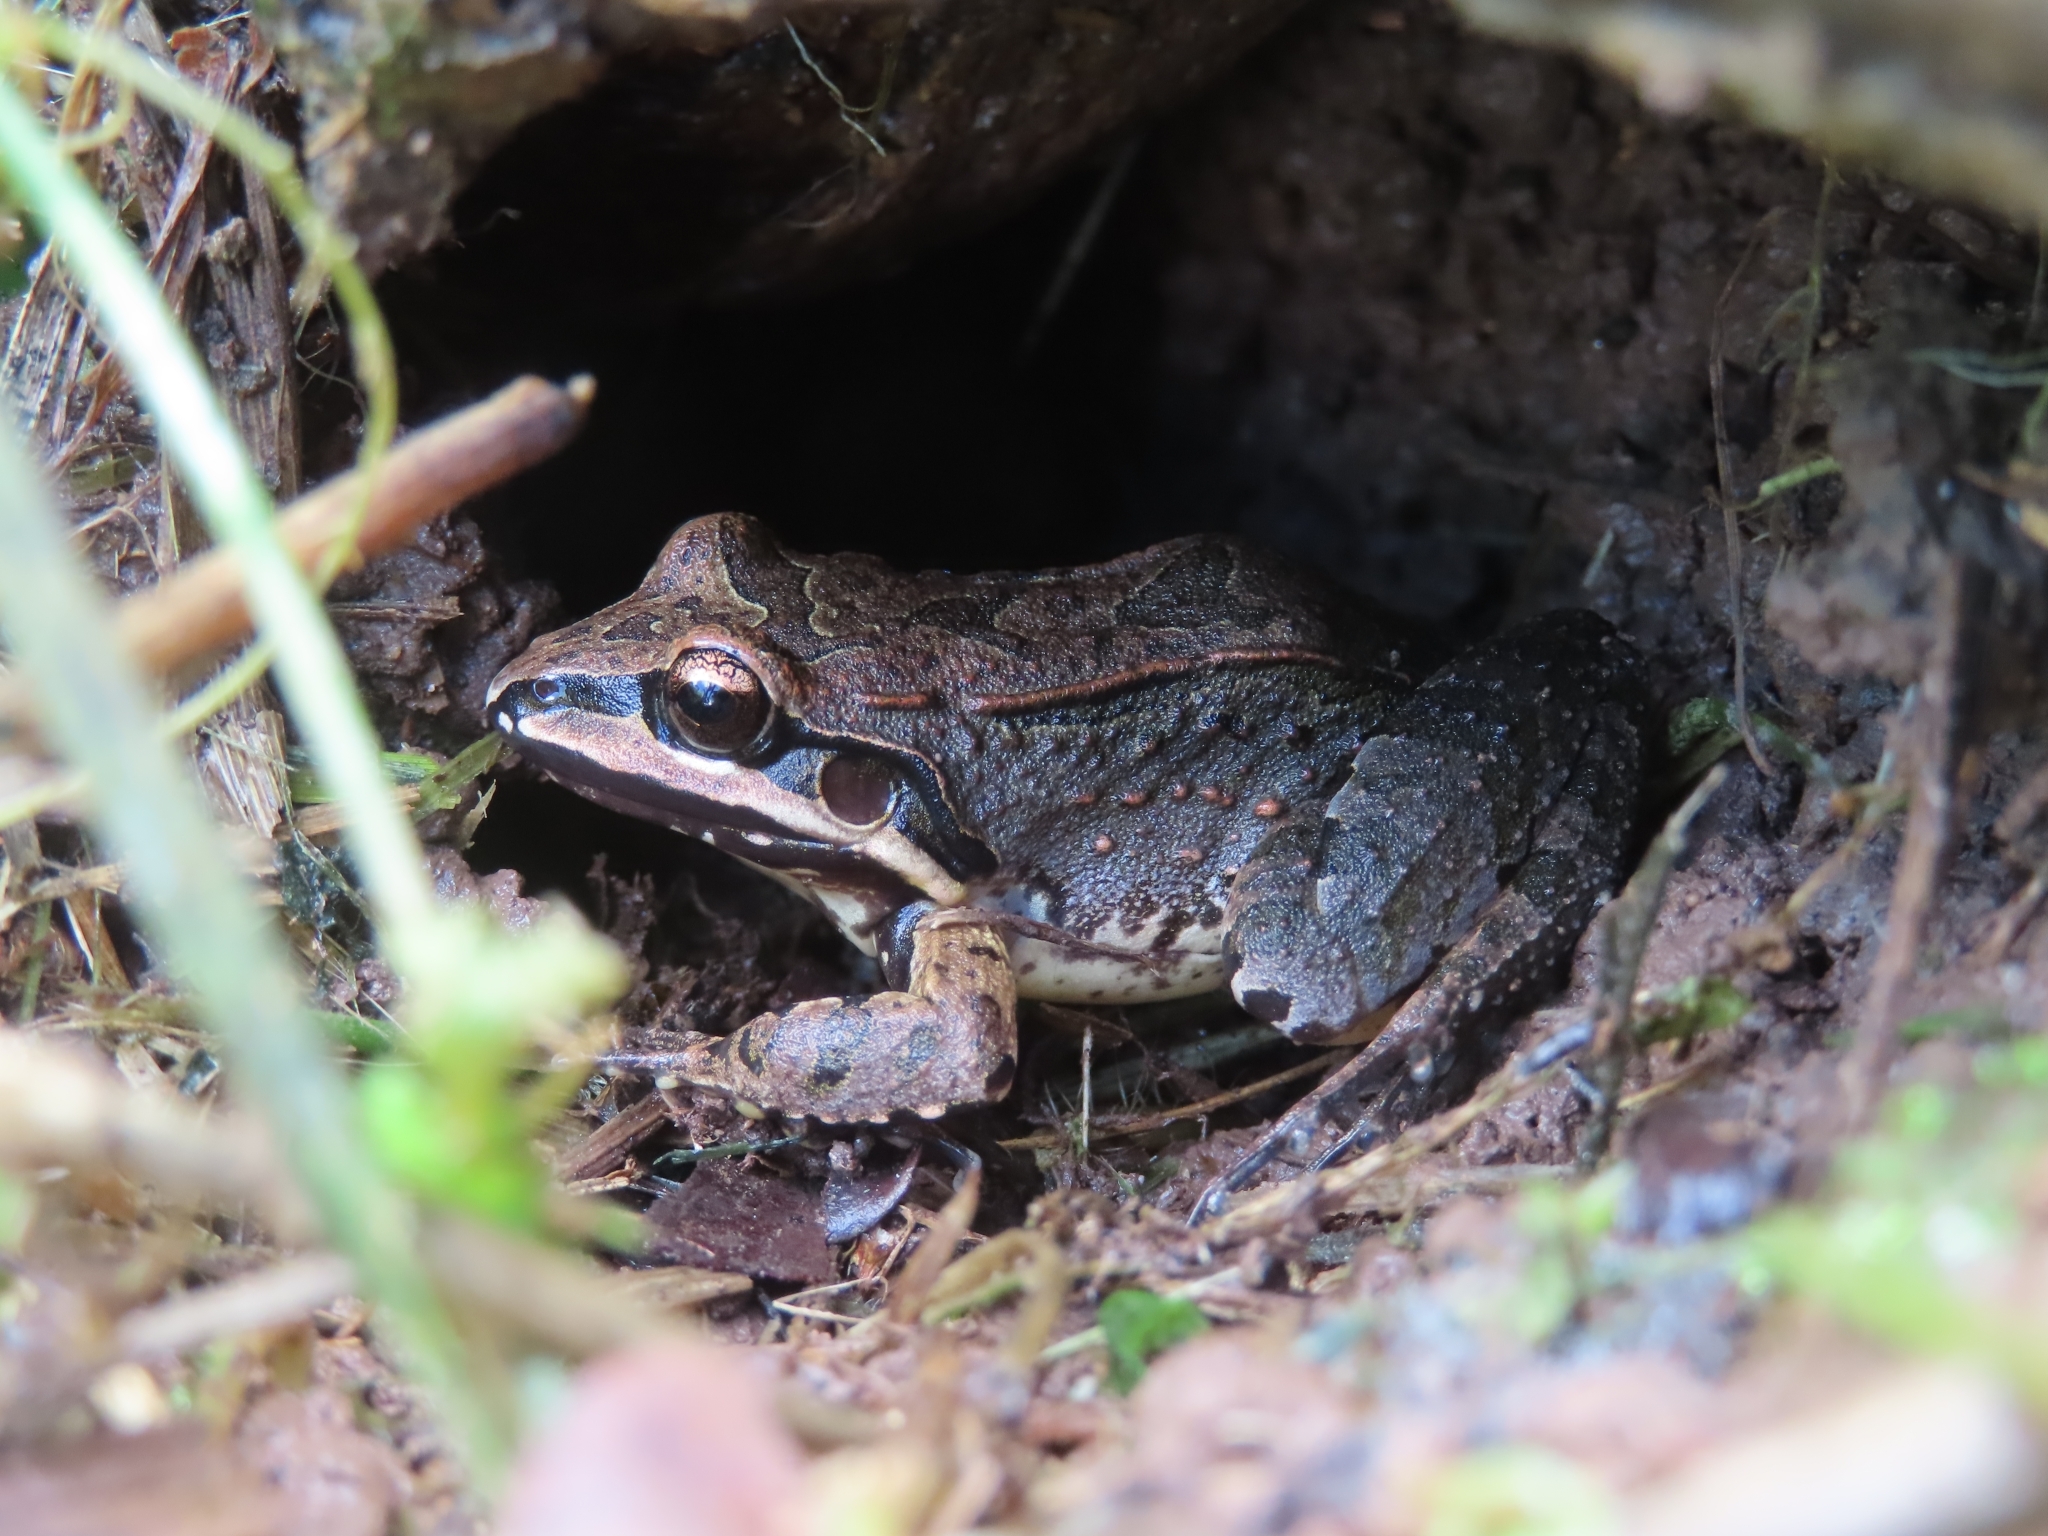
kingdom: Animalia
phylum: Chordata
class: Amphibia
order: Anura
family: Leptodactylidae
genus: Leptodactylus
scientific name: Leptodactylus albilabris
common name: Caribbean white-lipped frog
